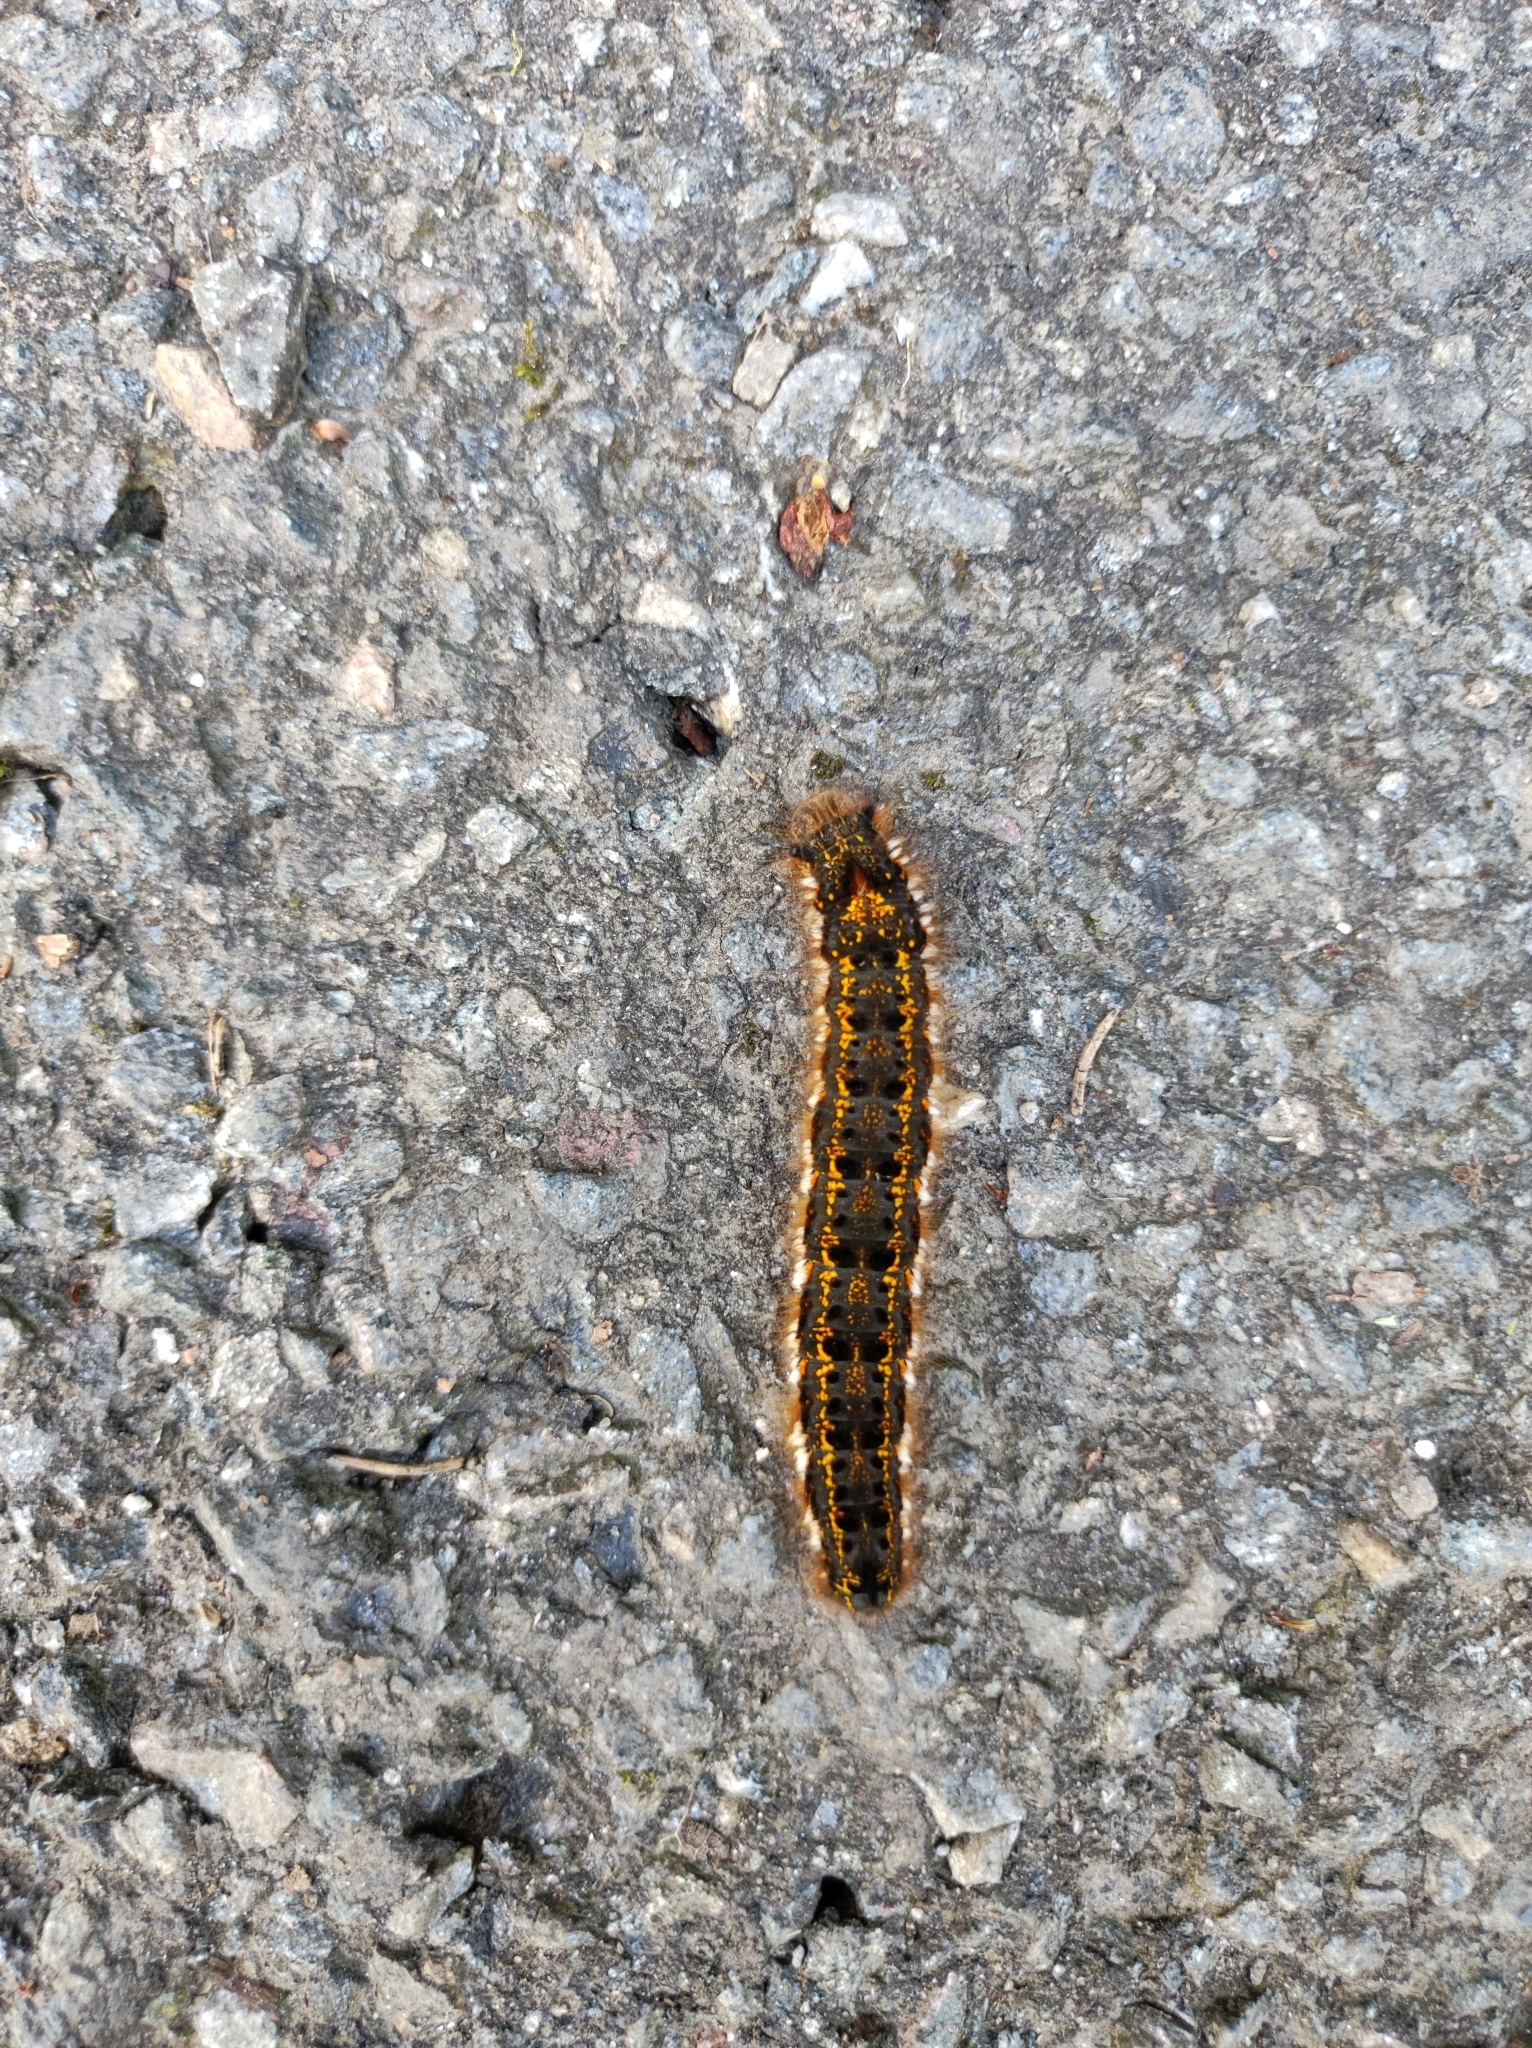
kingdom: Animalia
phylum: Arthropoda
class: Insecta
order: Lepidoptera
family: Lasiocampidae
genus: Euthrix
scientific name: Euthrix potatoria
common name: Drinker
